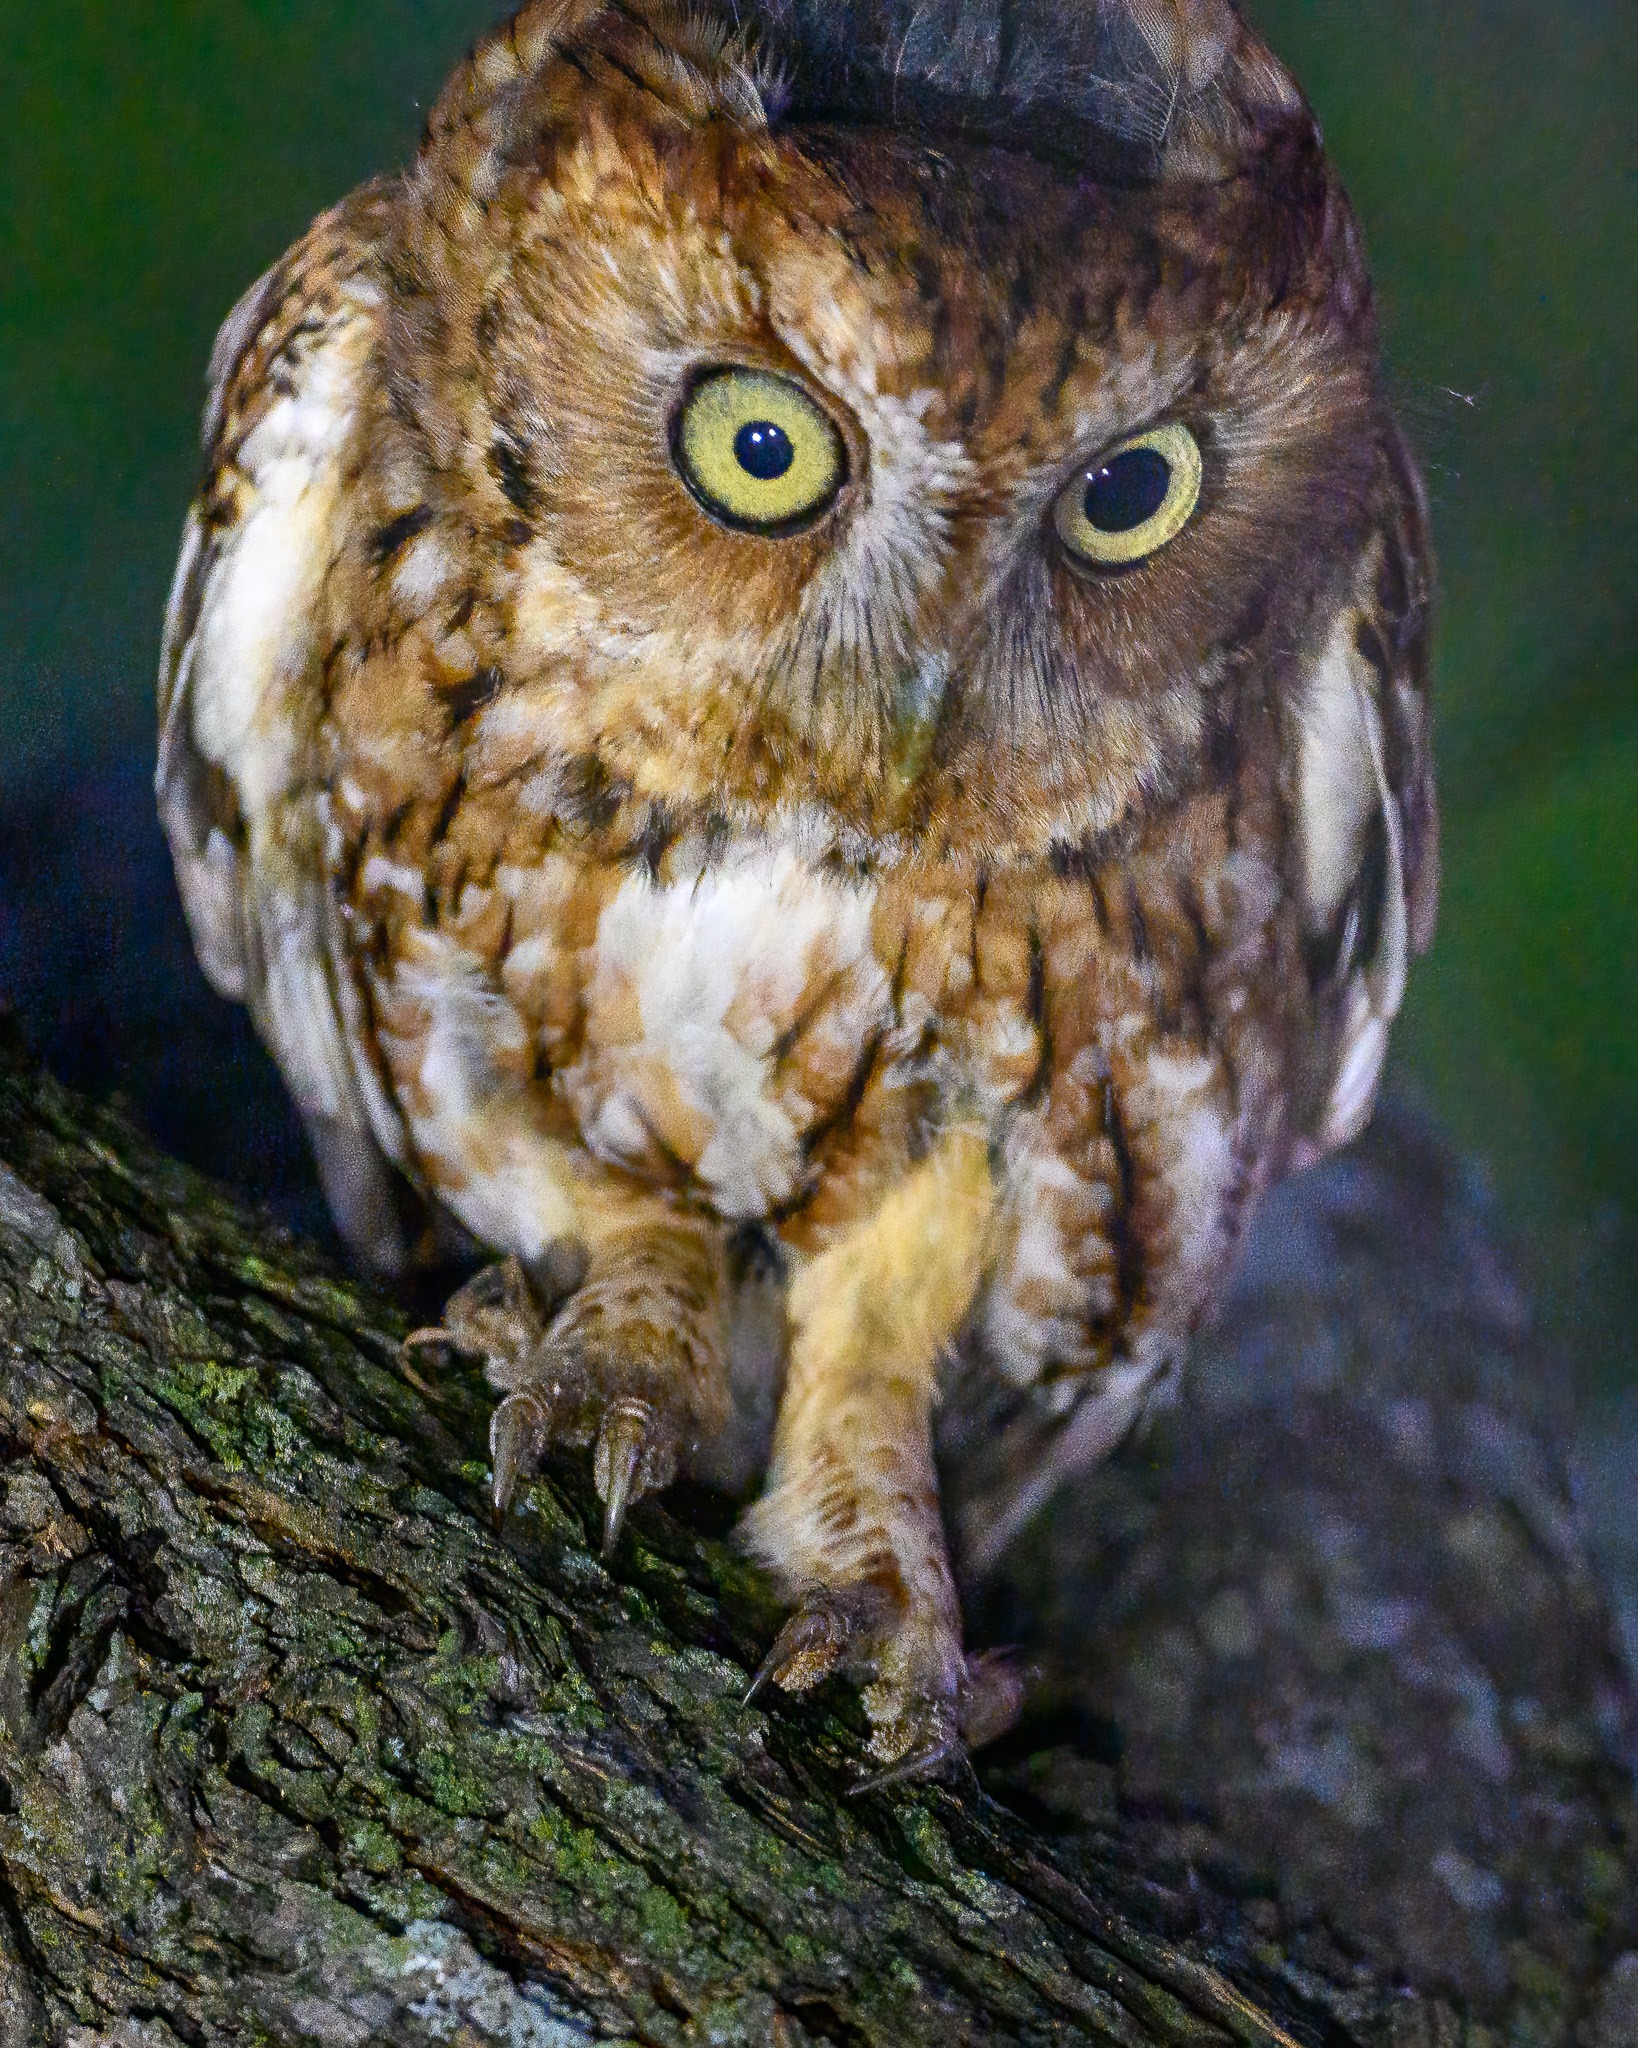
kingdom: Animalia
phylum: Chordata
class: Aves
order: Strigiformes
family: Strigidae
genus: Megascops
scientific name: Megascops asio
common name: Eastern screech-owl
